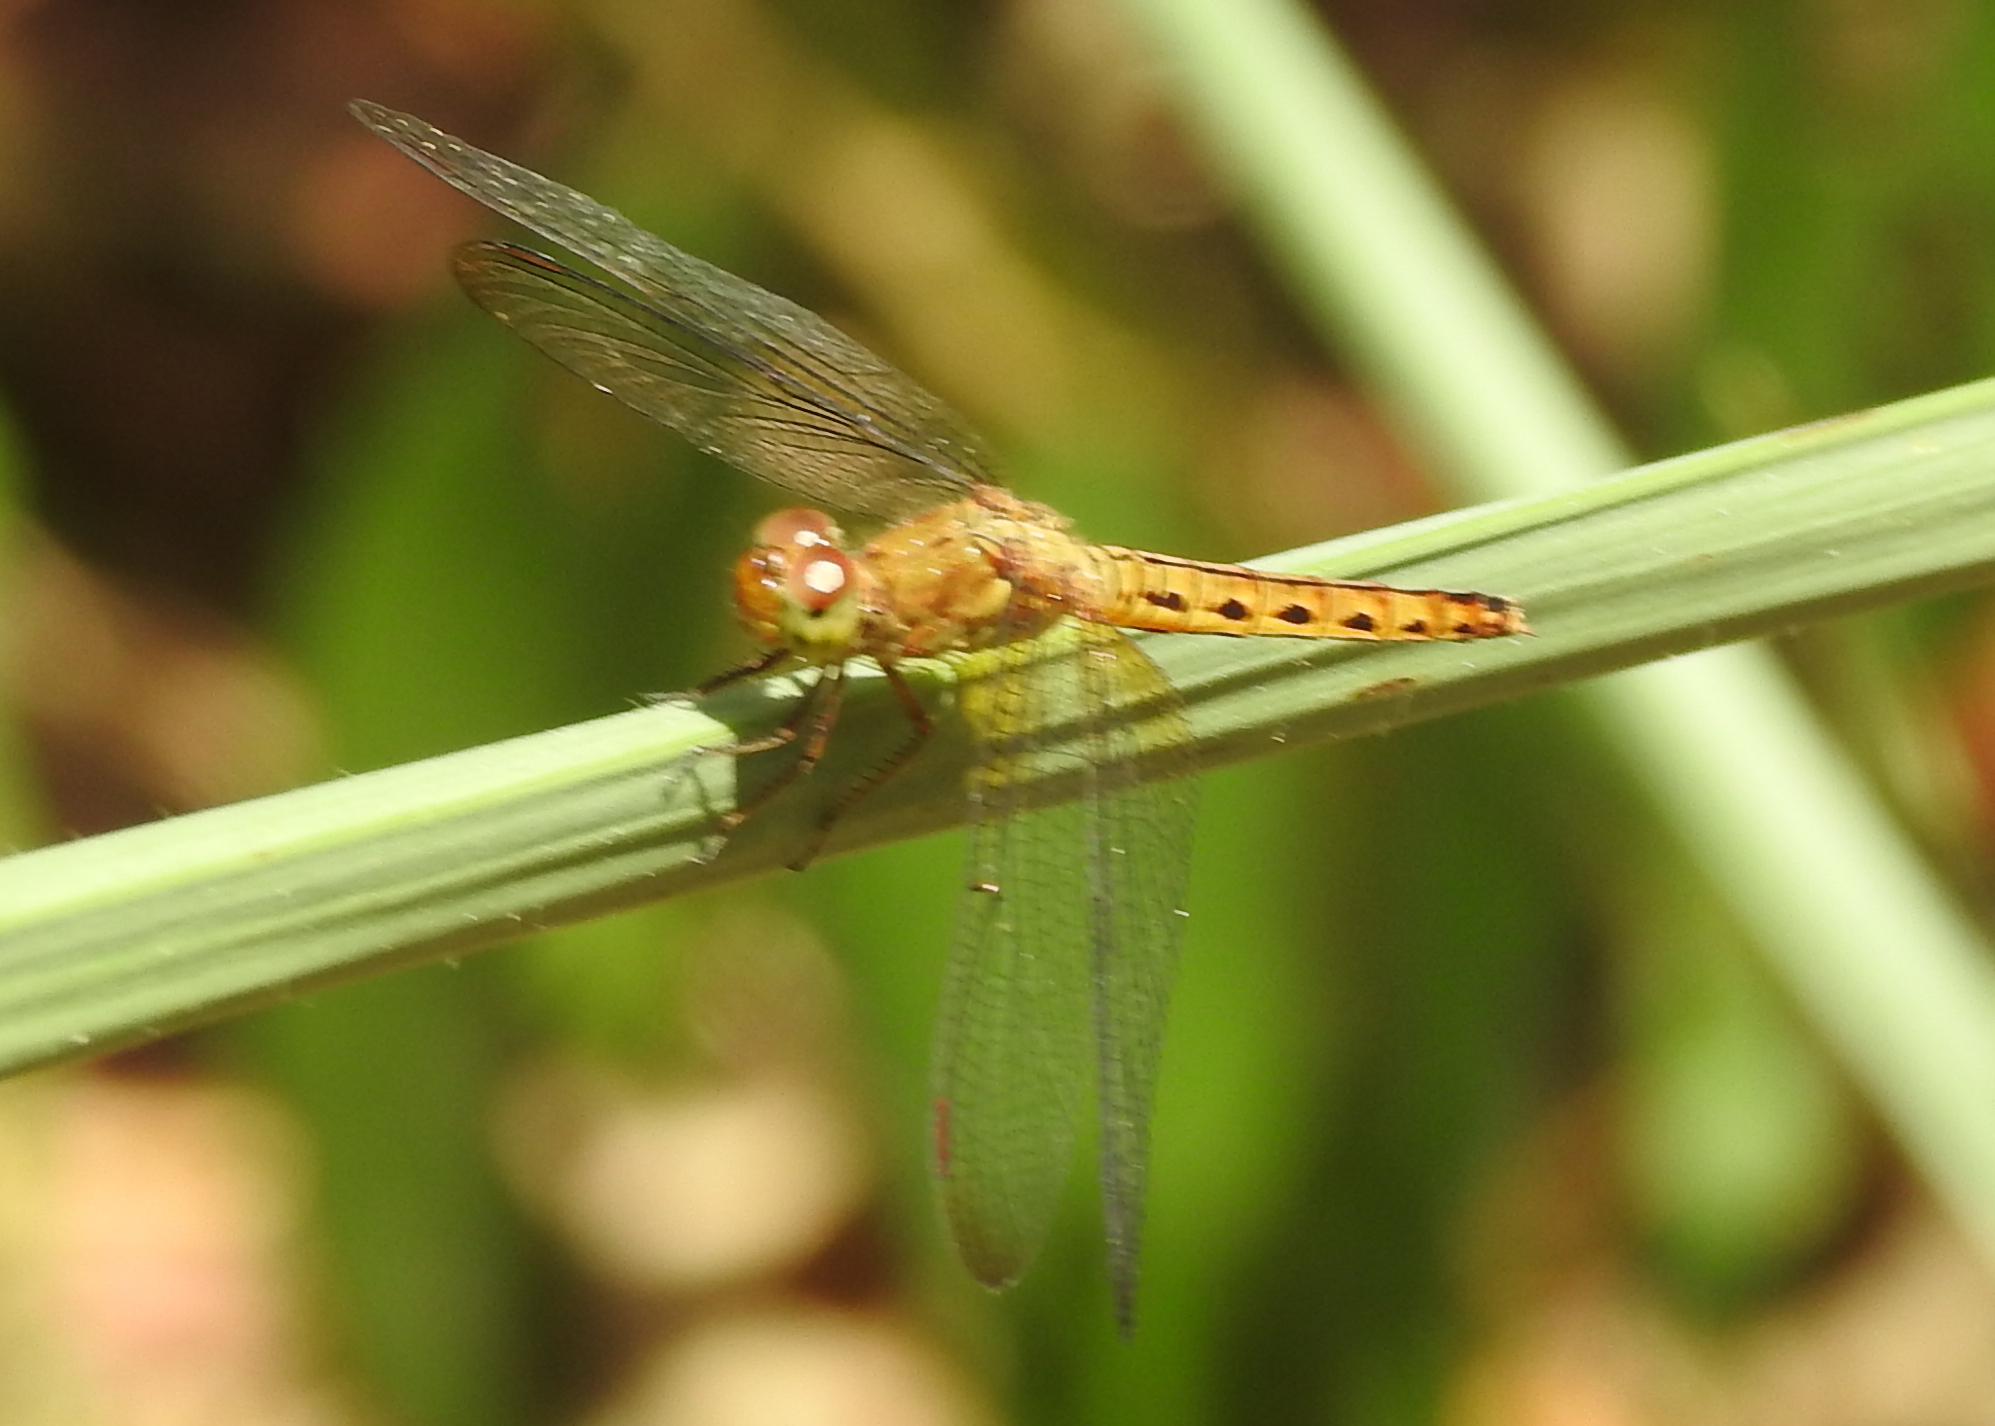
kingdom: Animalia
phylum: Arthropoda
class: Insecta
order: Odonata
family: Libellulidae
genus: Neurothemis
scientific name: Neurothemis fluctuans
